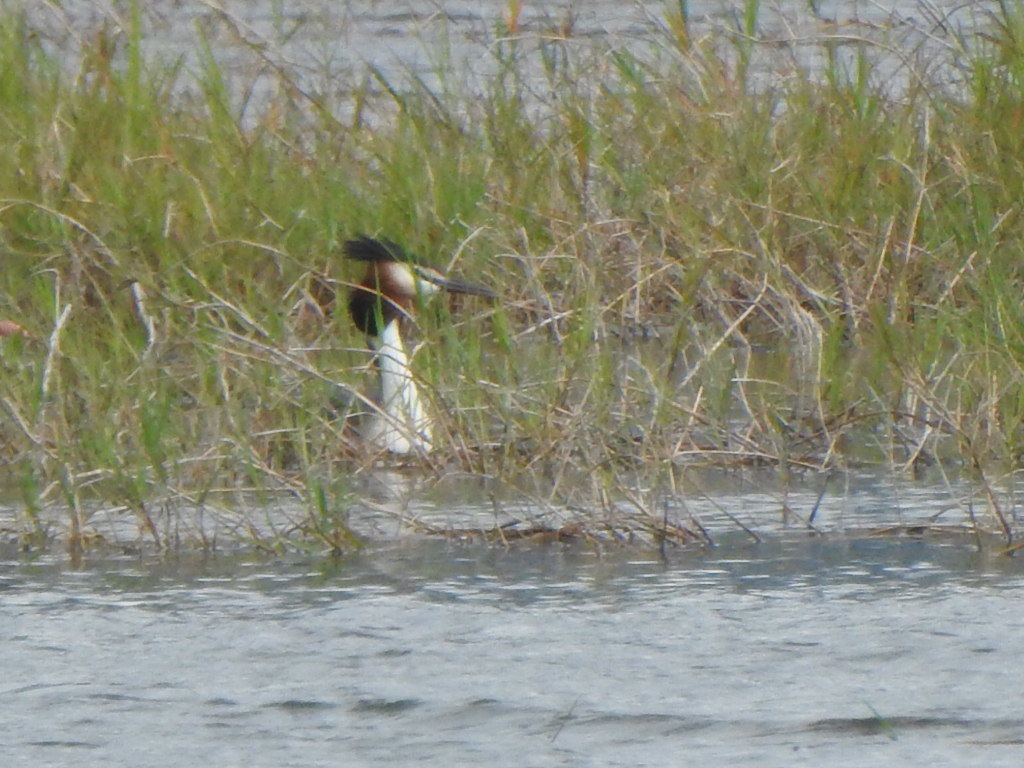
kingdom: Animalia
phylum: Chordata
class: Aves
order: Podicipediformes
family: Podicipedidae
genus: Podiceps
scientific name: Podiceps cristatus
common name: Great crested grebe
